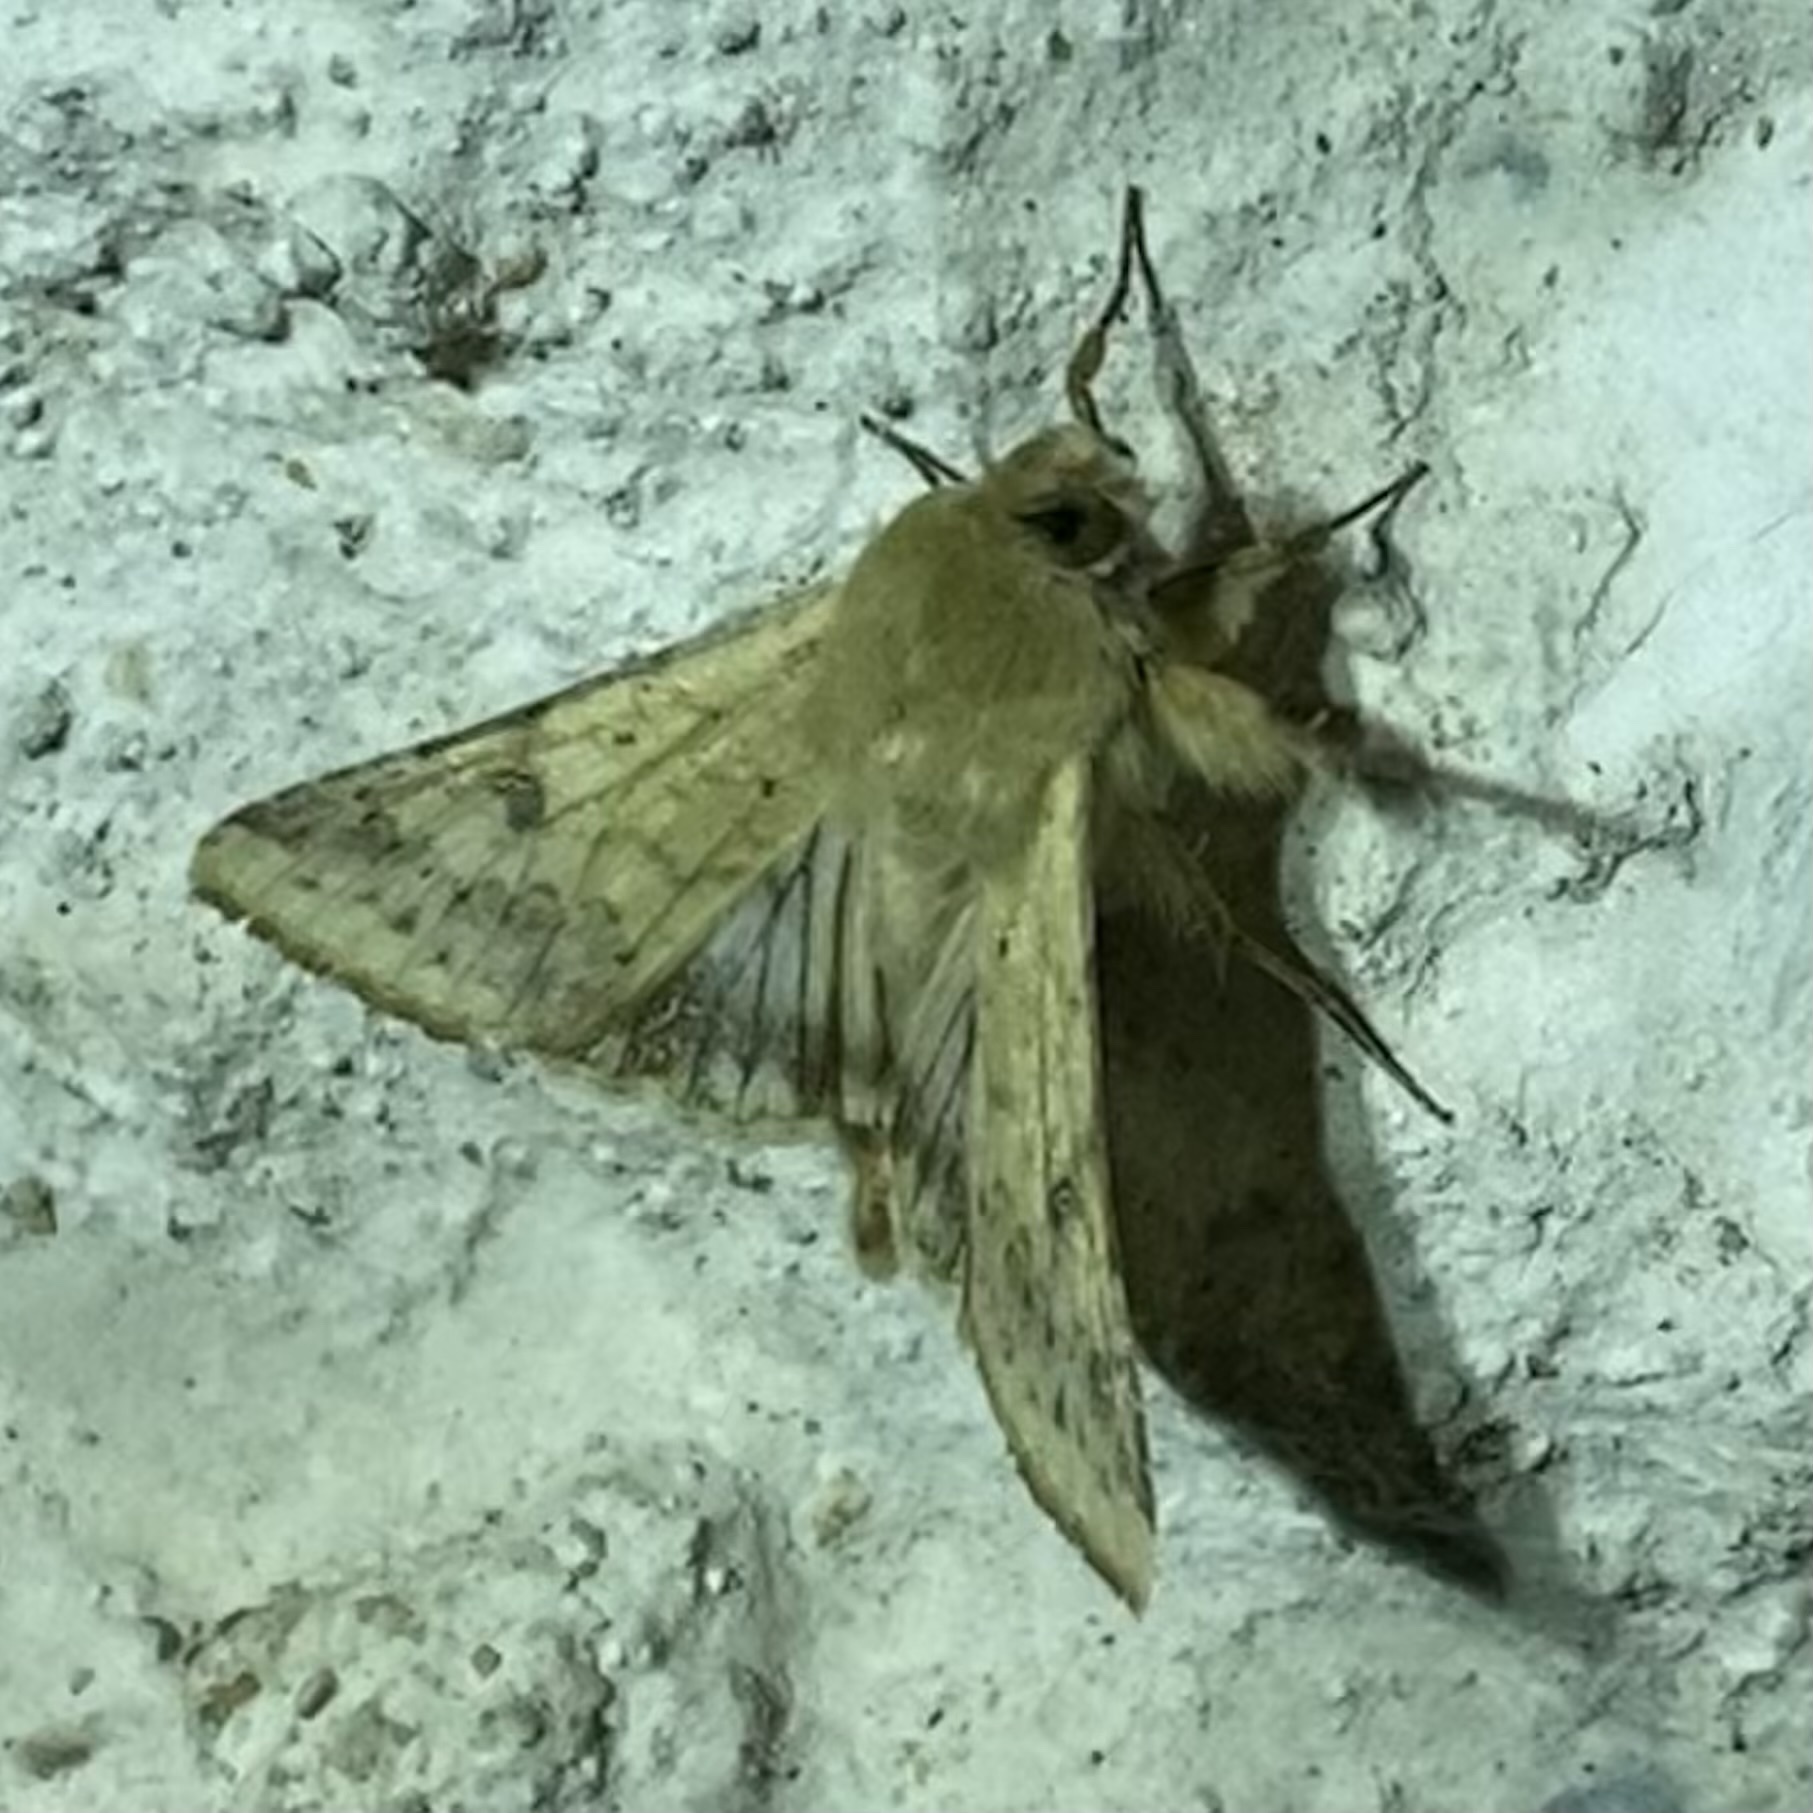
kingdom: Animalia
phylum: Arthropoda
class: Insecta
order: Lepidoptera
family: Noctuidae
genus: Helicoverpa
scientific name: Helicoverpa zea
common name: Bollworm
